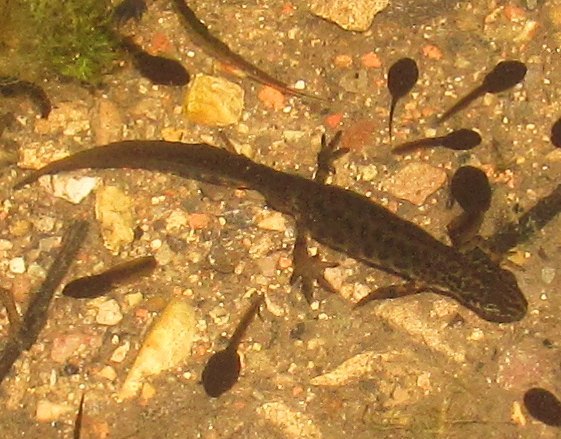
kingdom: Animalia
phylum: Chordata
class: Amphibia
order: Caudata
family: Salamandridae
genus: Lissotriton
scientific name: Lissotriton vulgaris
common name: Smooth newt
